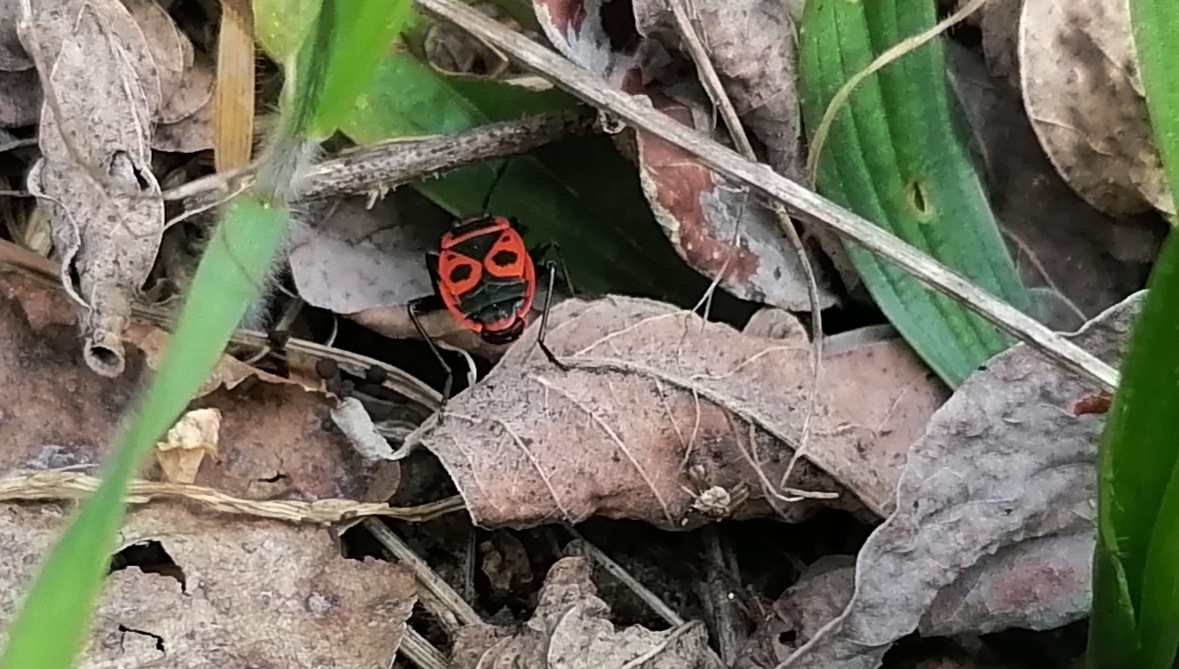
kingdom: Animalia
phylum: Arthropoda
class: Insecta
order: Hemiptera
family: Pyrrhocoridae
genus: Pyrrhocoris
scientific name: Pyrrhocoris apterus
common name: Firebug
